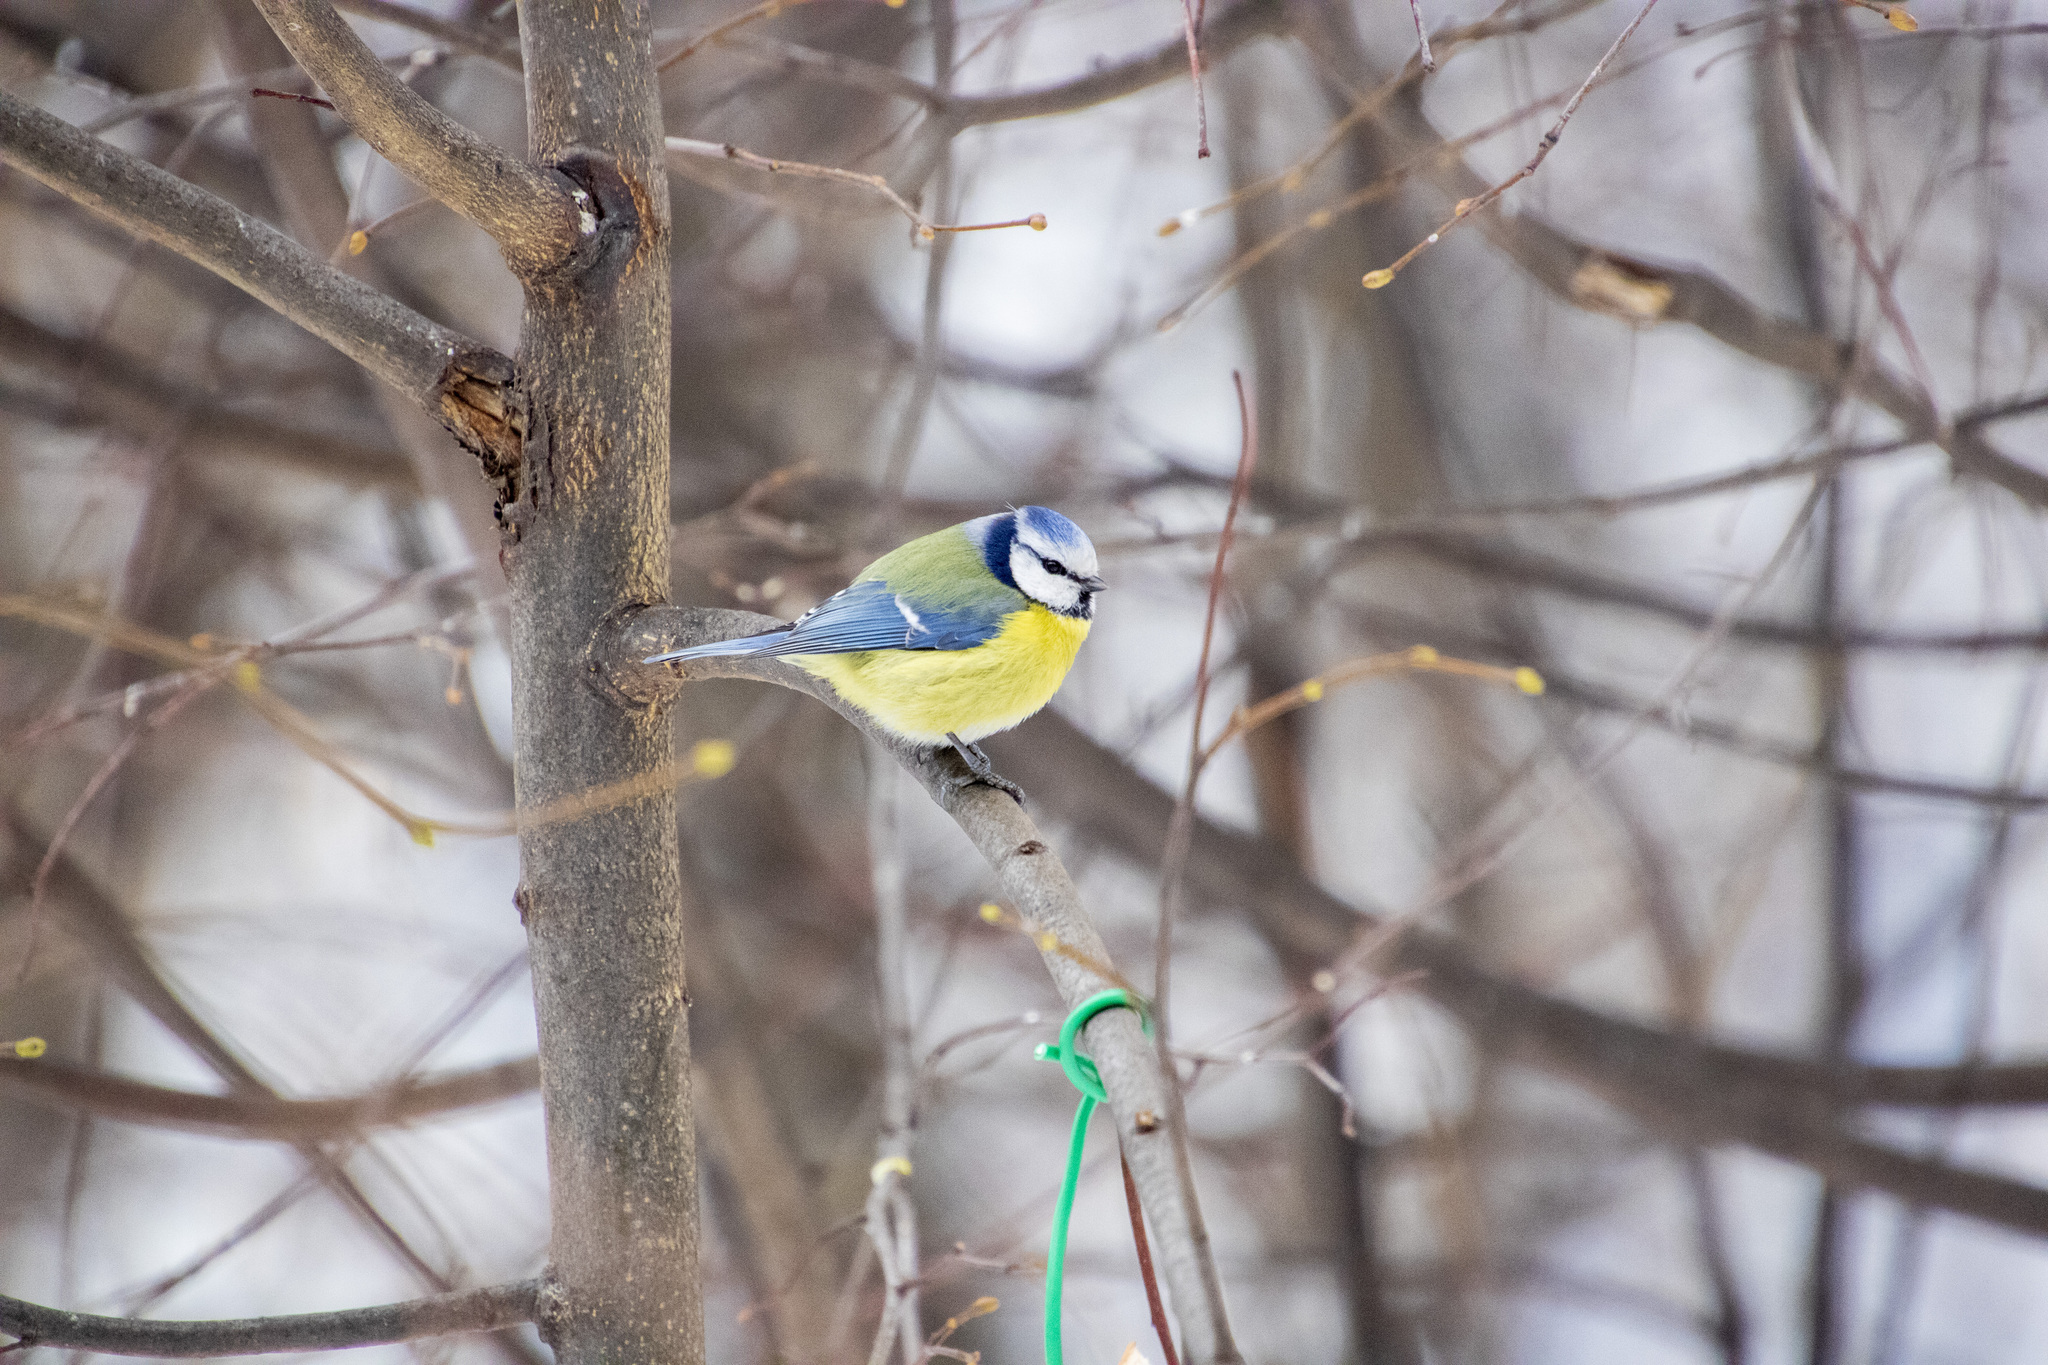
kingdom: Animalia
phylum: Chordata
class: Aves
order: Passeriformes
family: Paridae
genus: Cyanistes
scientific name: Cyanistes caeruleus
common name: Eurasian blue tit
